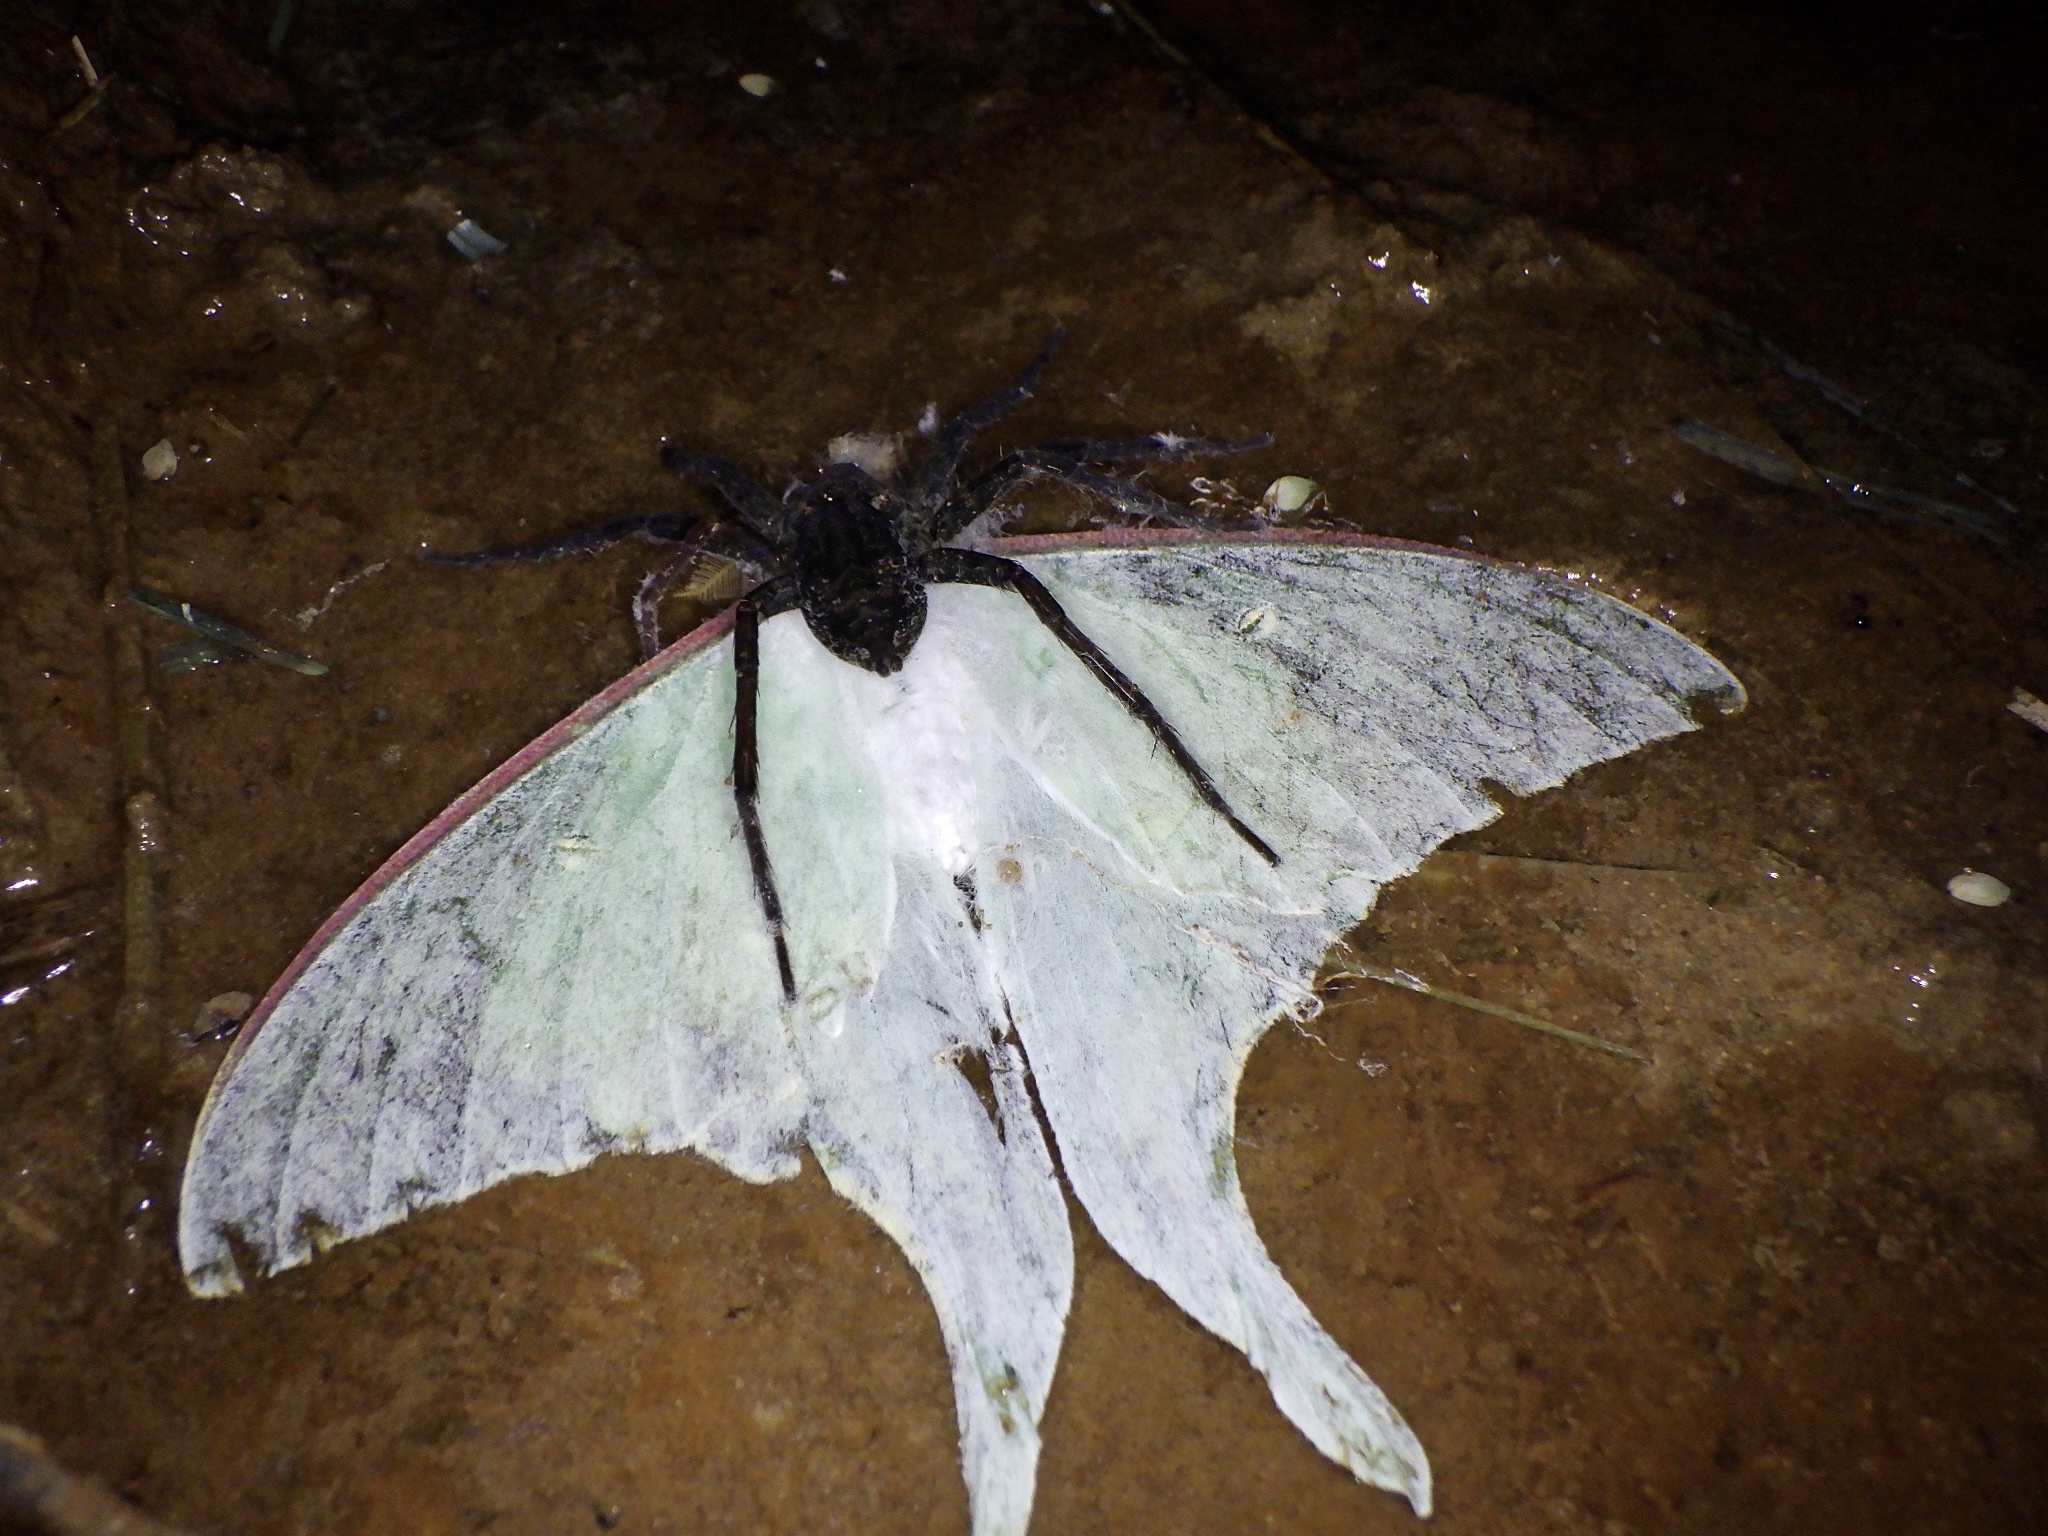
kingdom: Animalia
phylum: Arthropoda
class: Insecta
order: Lepidoptera
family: Saturniidae
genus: Actias
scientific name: Actias aliena
